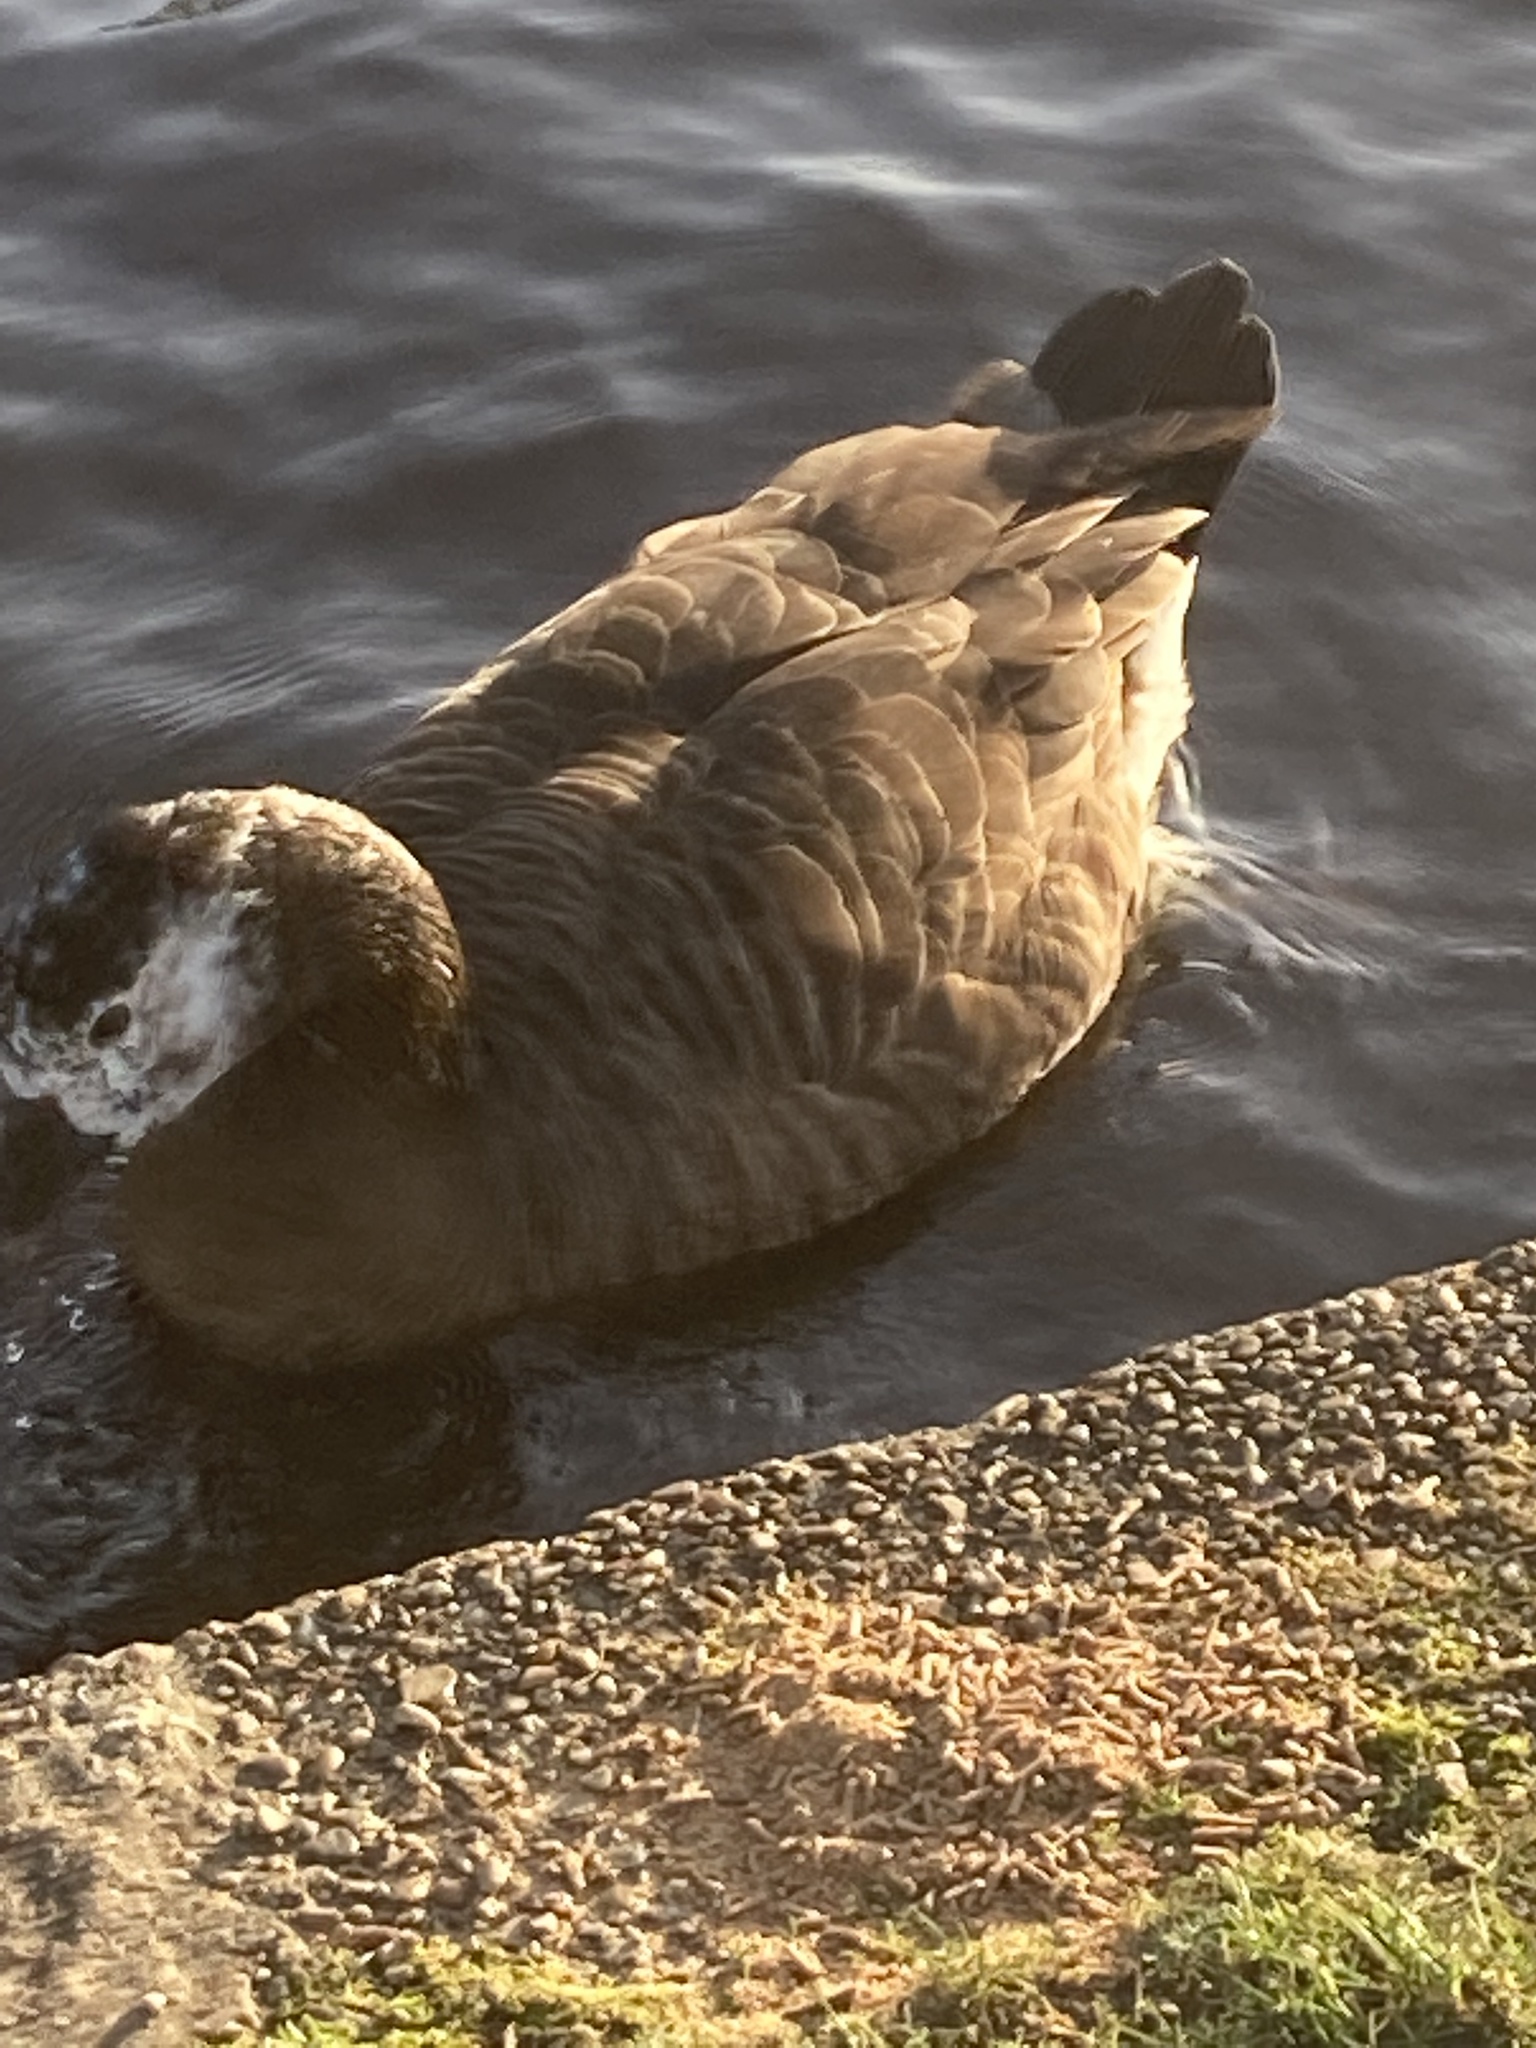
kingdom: Animalia
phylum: Chordata
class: Aves
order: Anseriformes
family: Anatidae
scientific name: Anatidae
